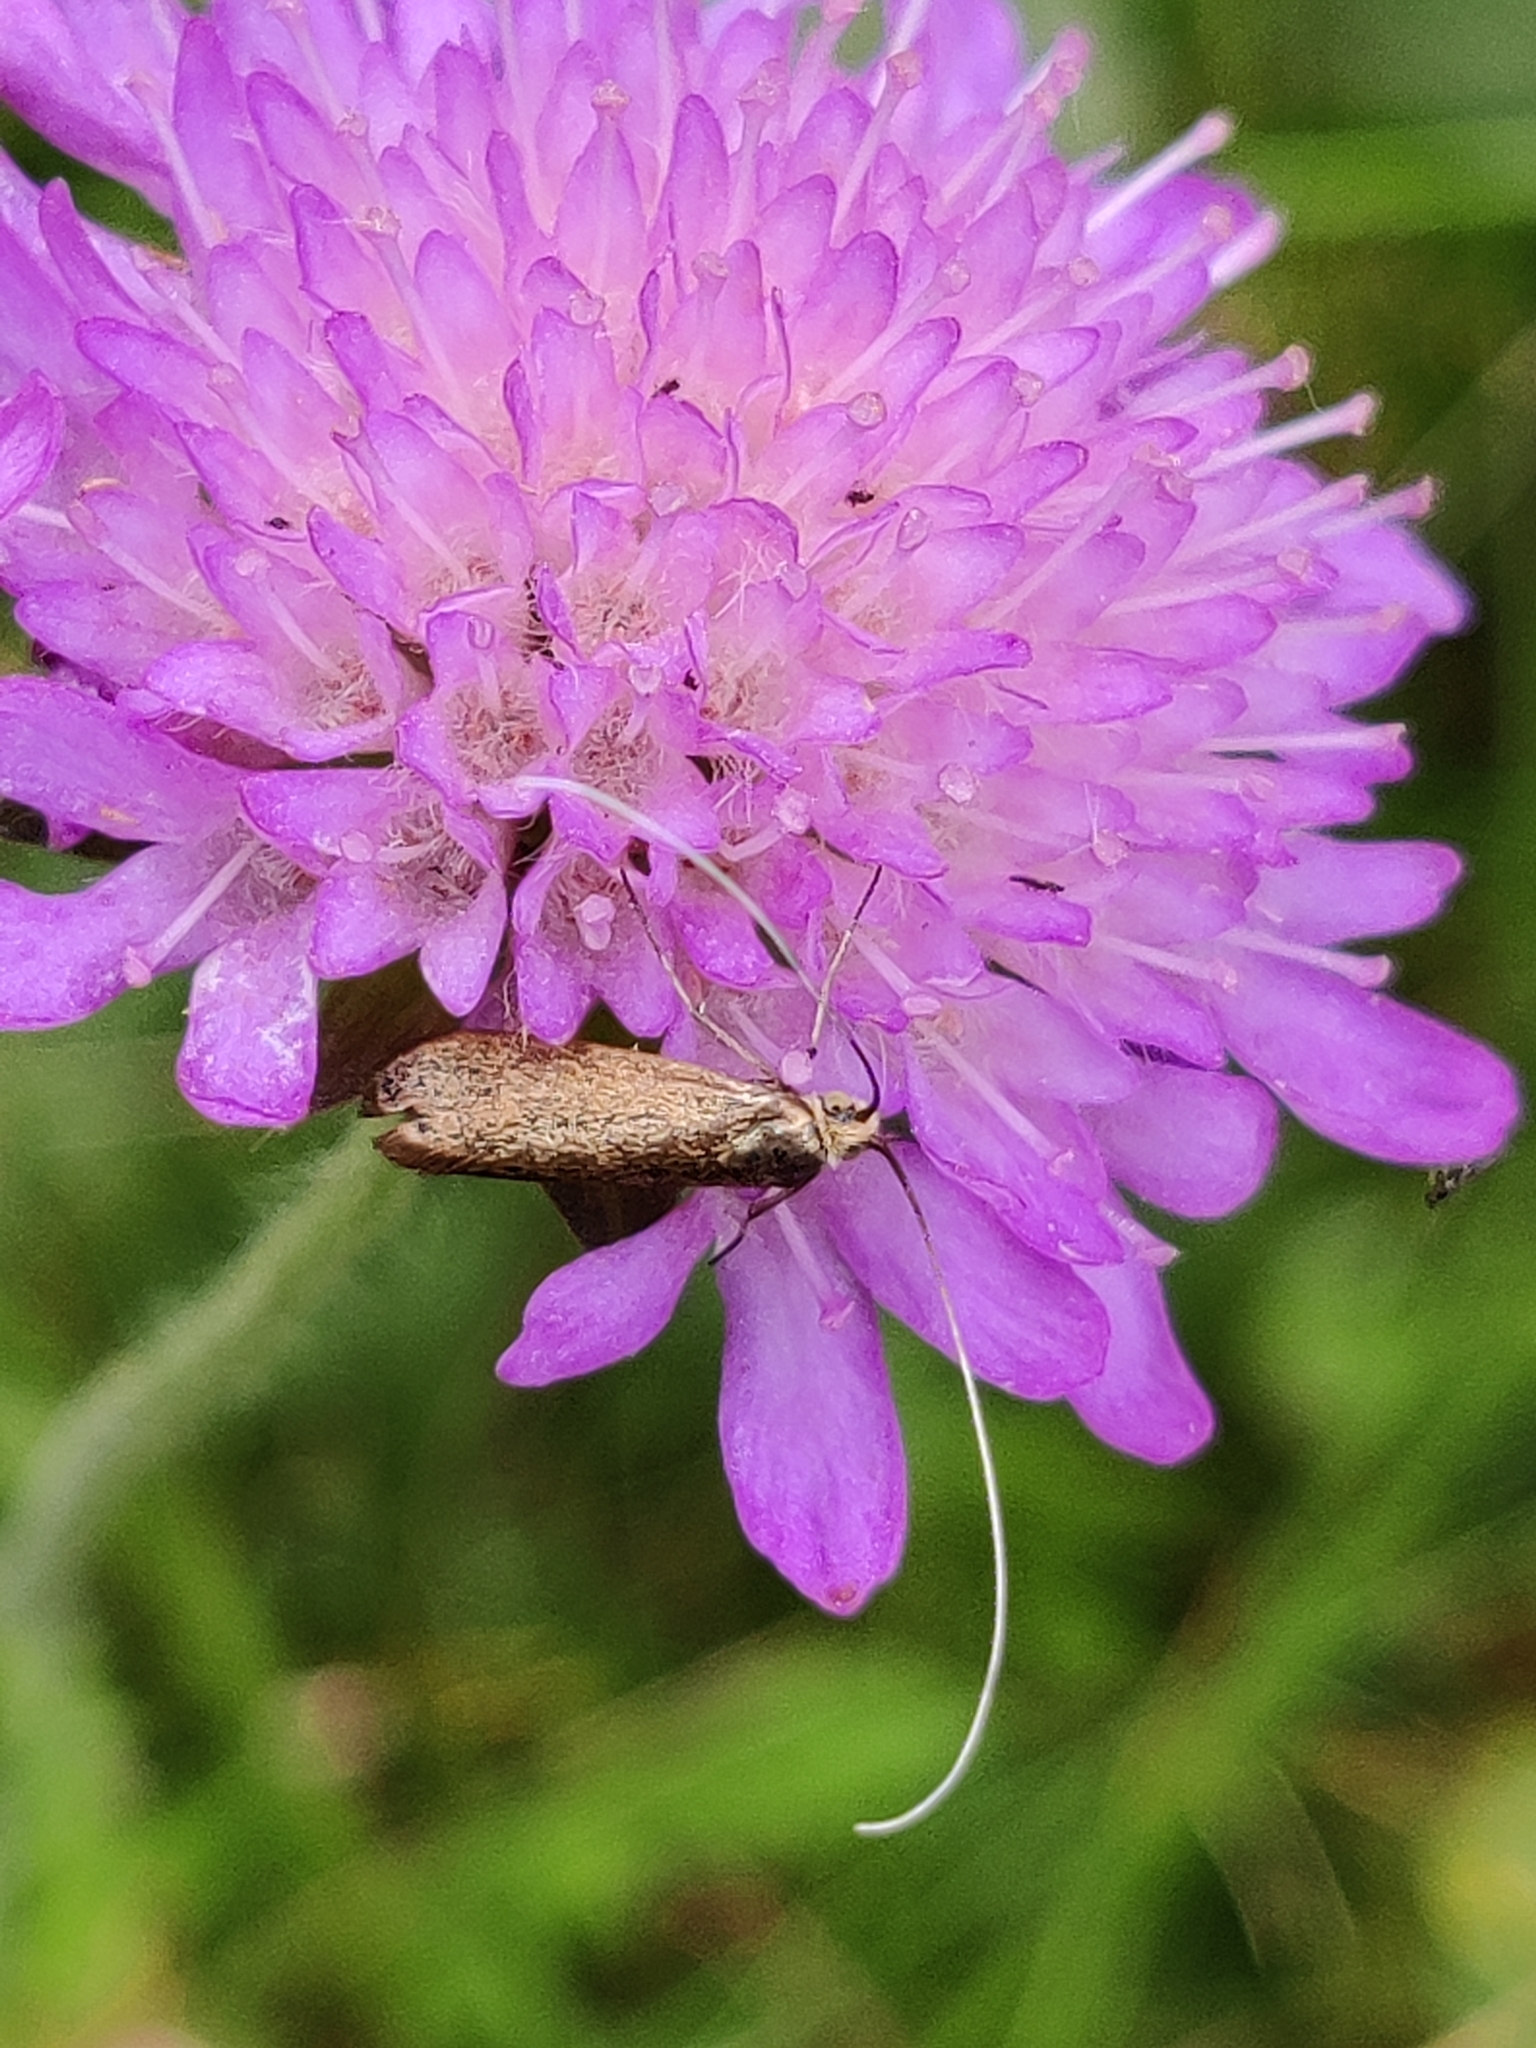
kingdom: Animalia
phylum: Arthropoda
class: Insecta
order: Lepidoptera
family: Adelidae
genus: Nemophora
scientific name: Nemophora metallica
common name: Brassy long-horn
